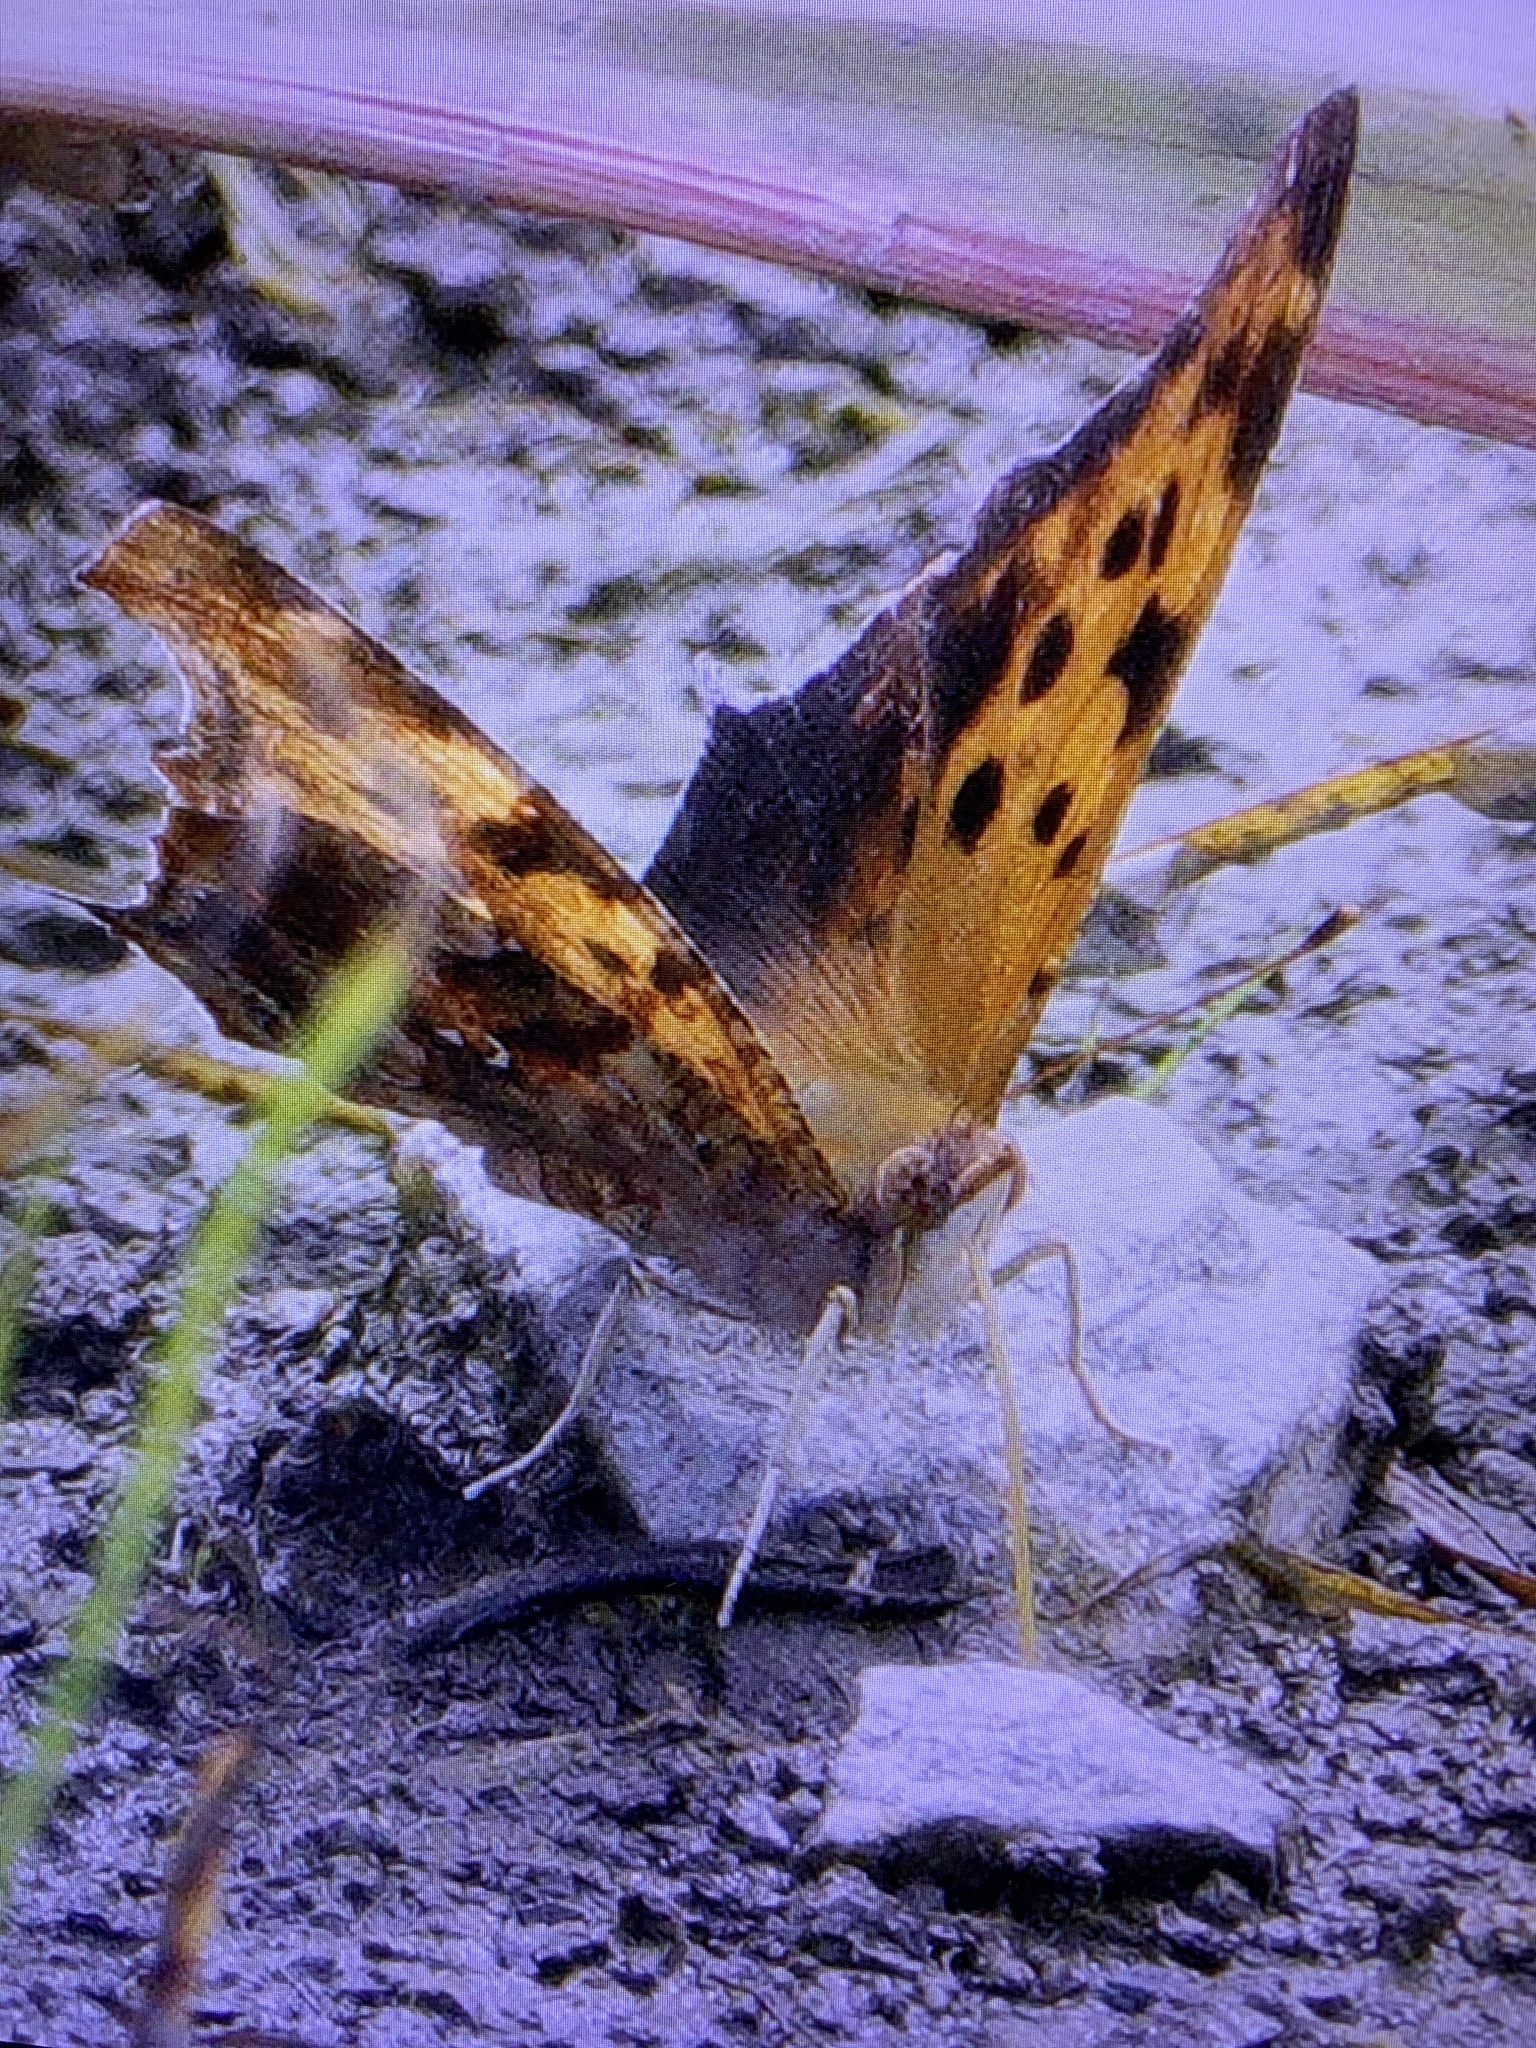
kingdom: Animalia
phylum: Arthropoda
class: Insecta
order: Lepidoptera
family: Nymphalidae
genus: Polygonia
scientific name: Polygonia interrogationis
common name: Question mark
